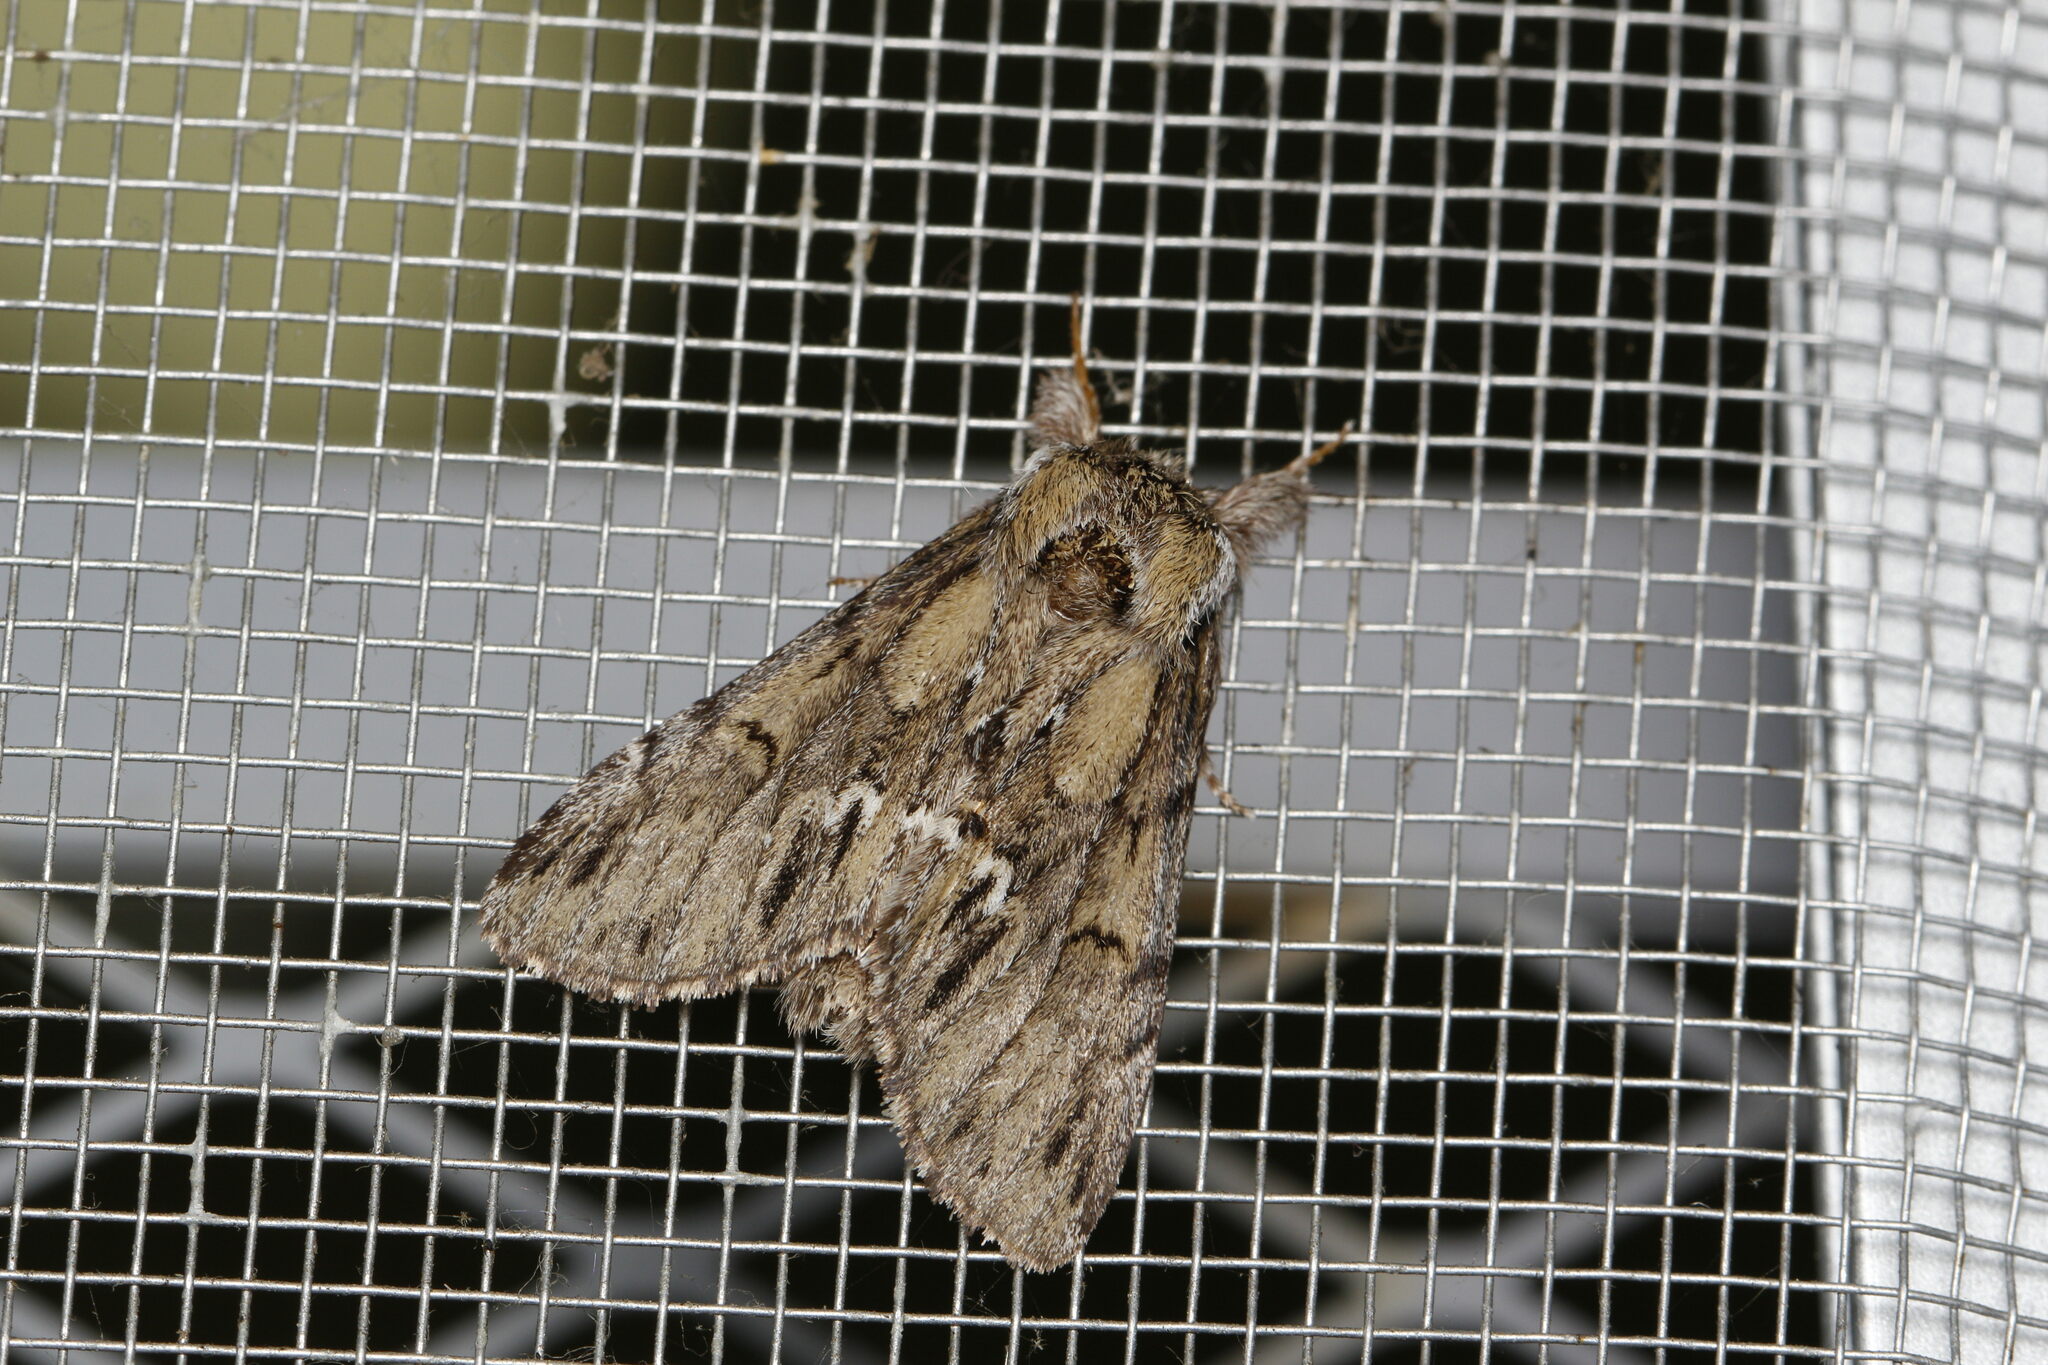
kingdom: Animalia
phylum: Arthropoda
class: Insecta
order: Lepidoptera
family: Notodontidae
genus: Paraeschra
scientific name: Paraeschra georgica
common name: Georgian prominent
